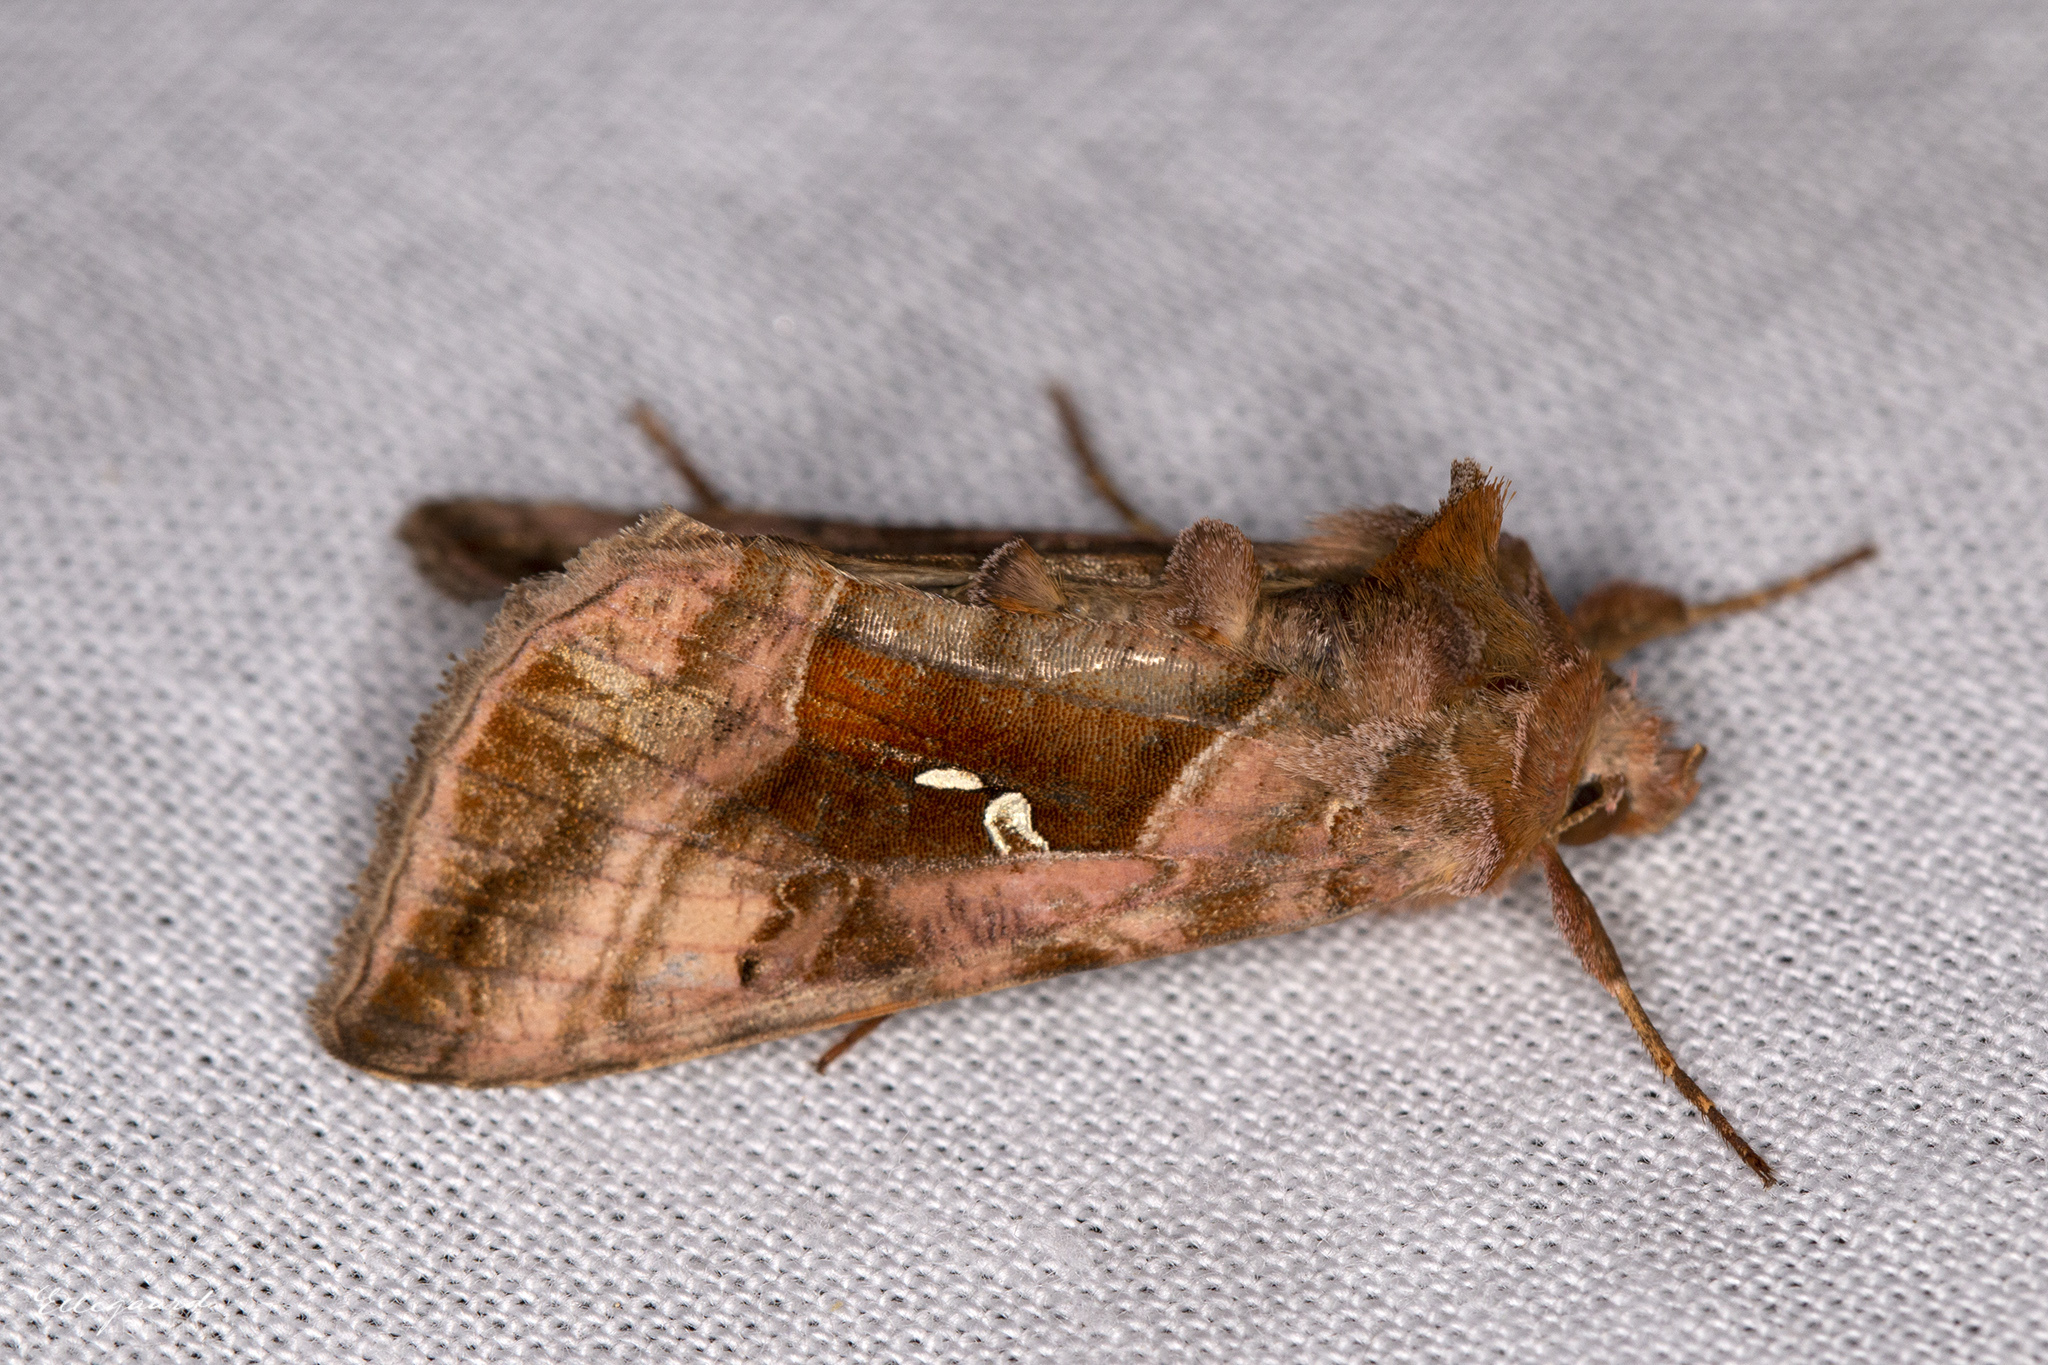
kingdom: Animalia
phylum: Arthropoda
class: Insecta
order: Lepidoptera
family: Noctuidae
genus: Autographa
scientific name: Autographa jota
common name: Plain golden y
